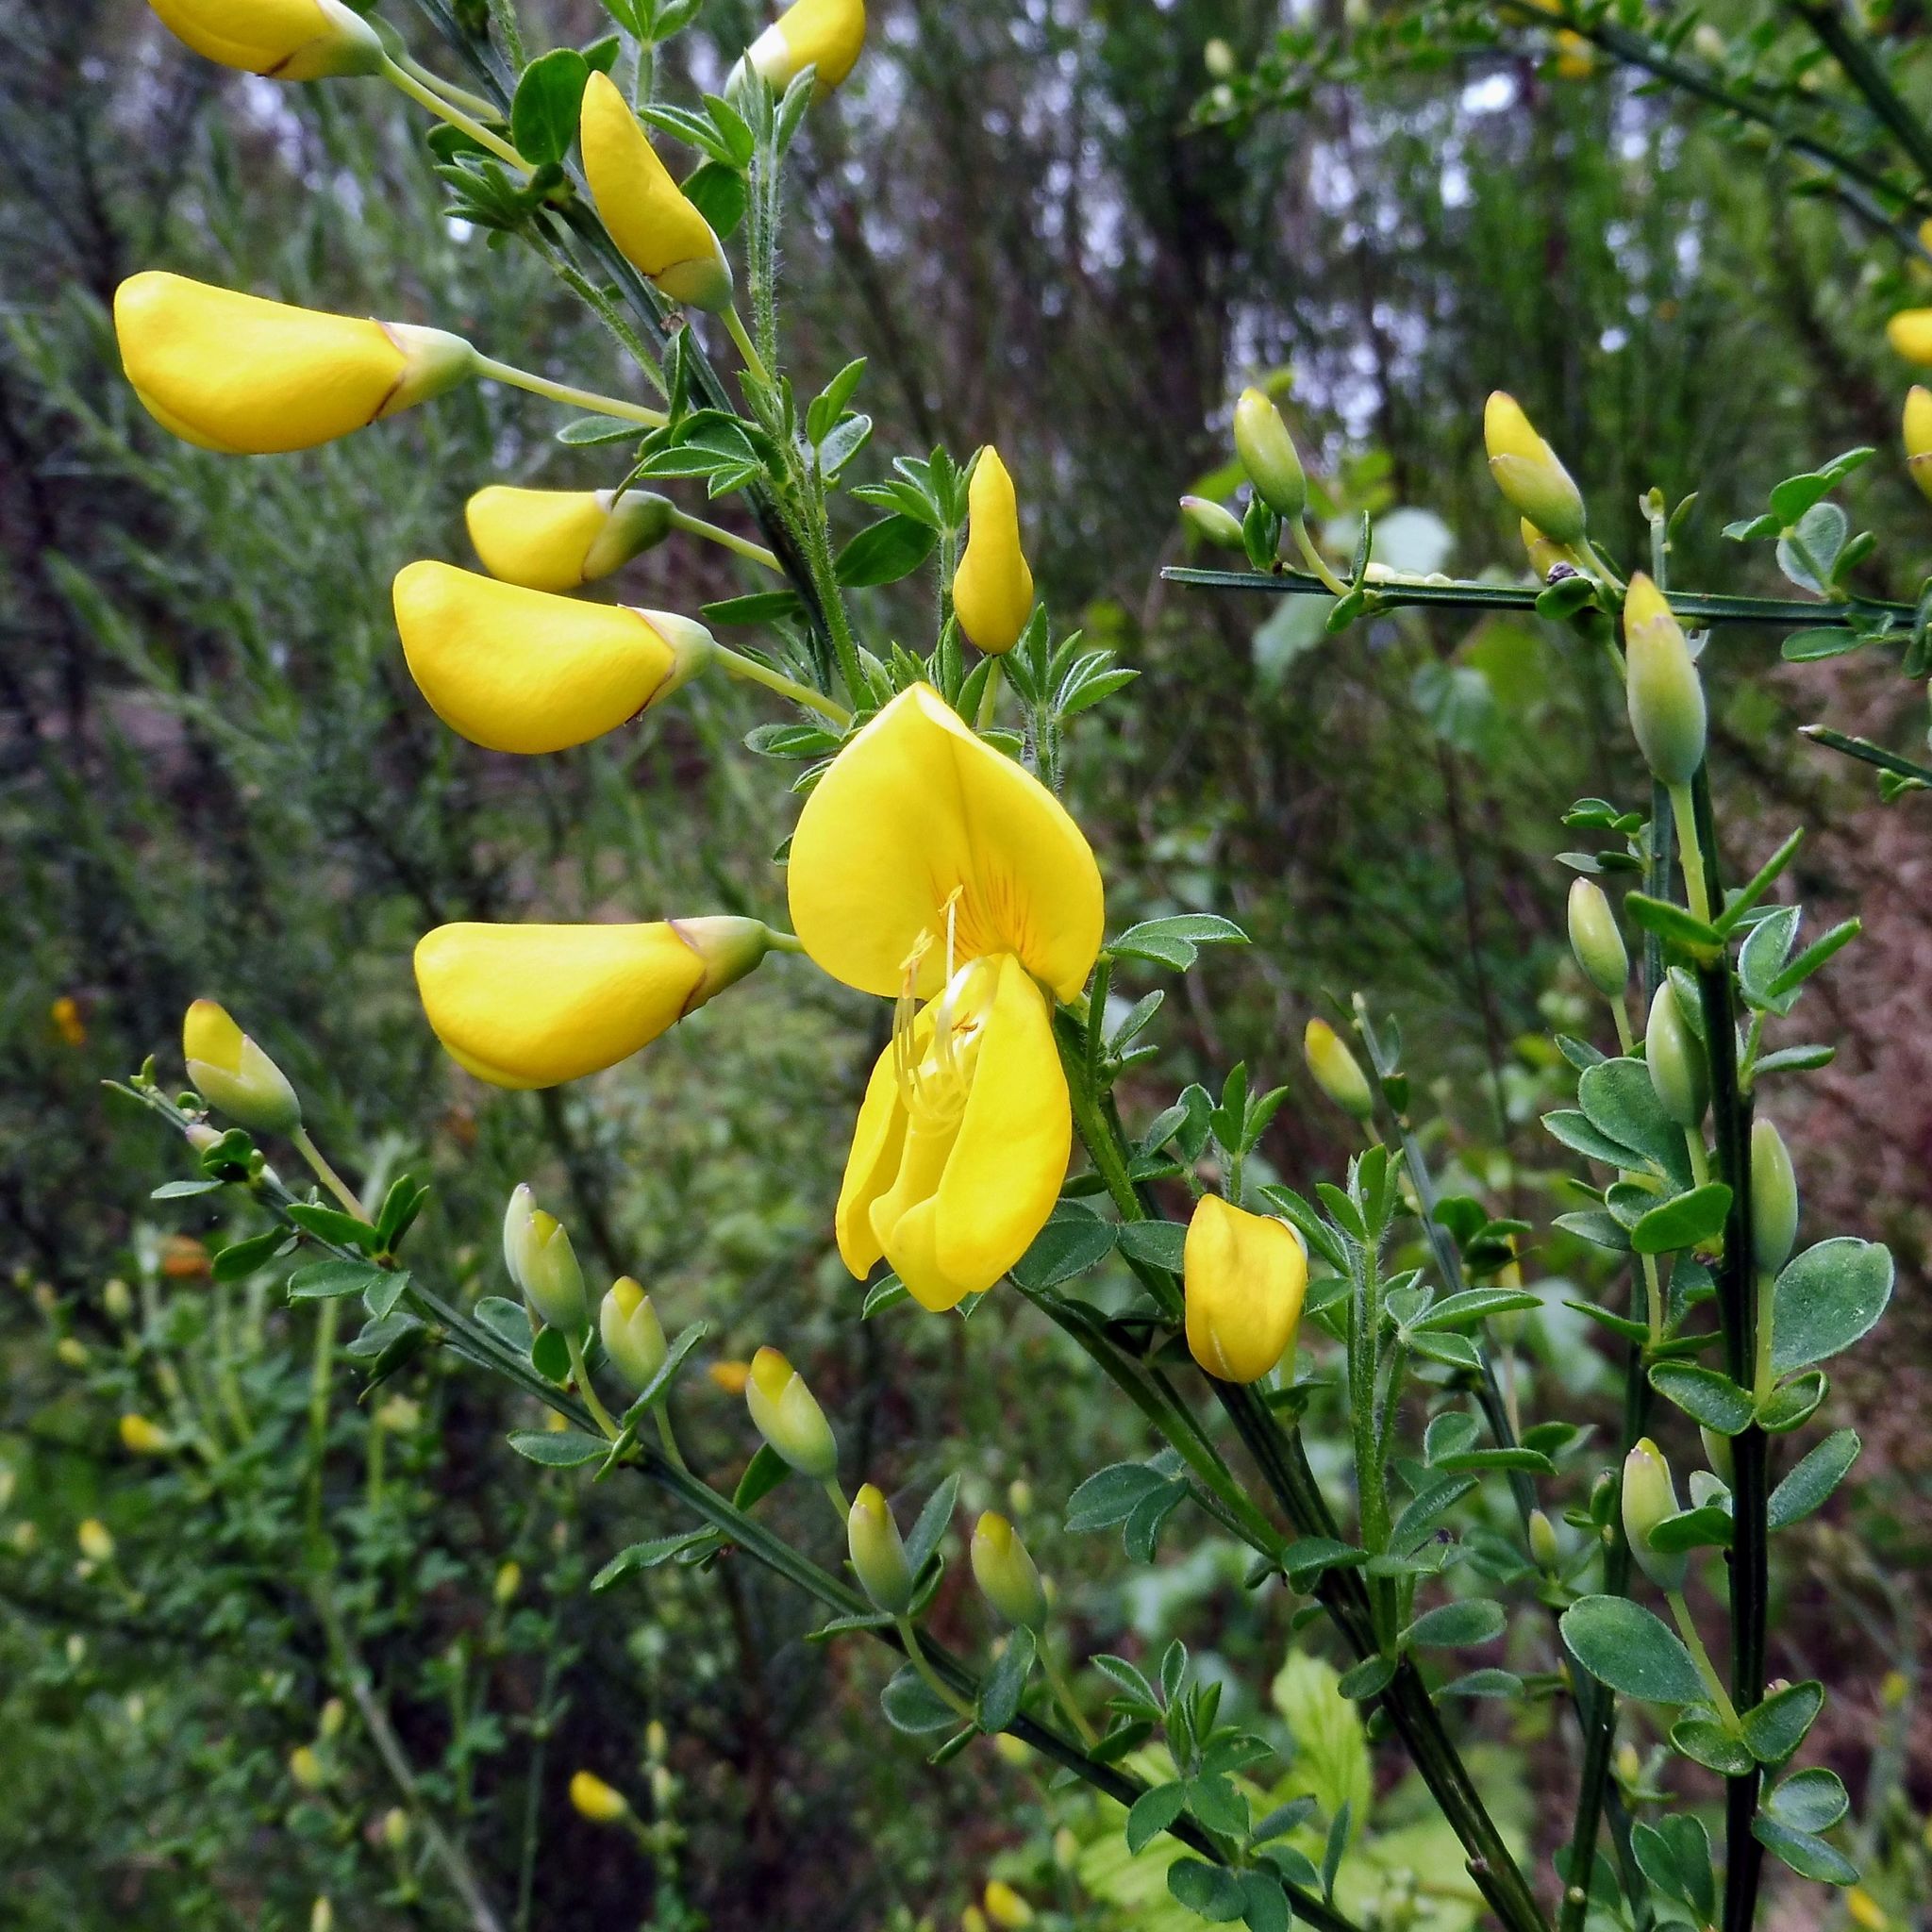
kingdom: Plantae
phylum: Tracheophyta
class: Magnoliopsida
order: Fabales
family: Fabaceae
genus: Cytisus
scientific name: Cytisus scoparius
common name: Scotch broom
